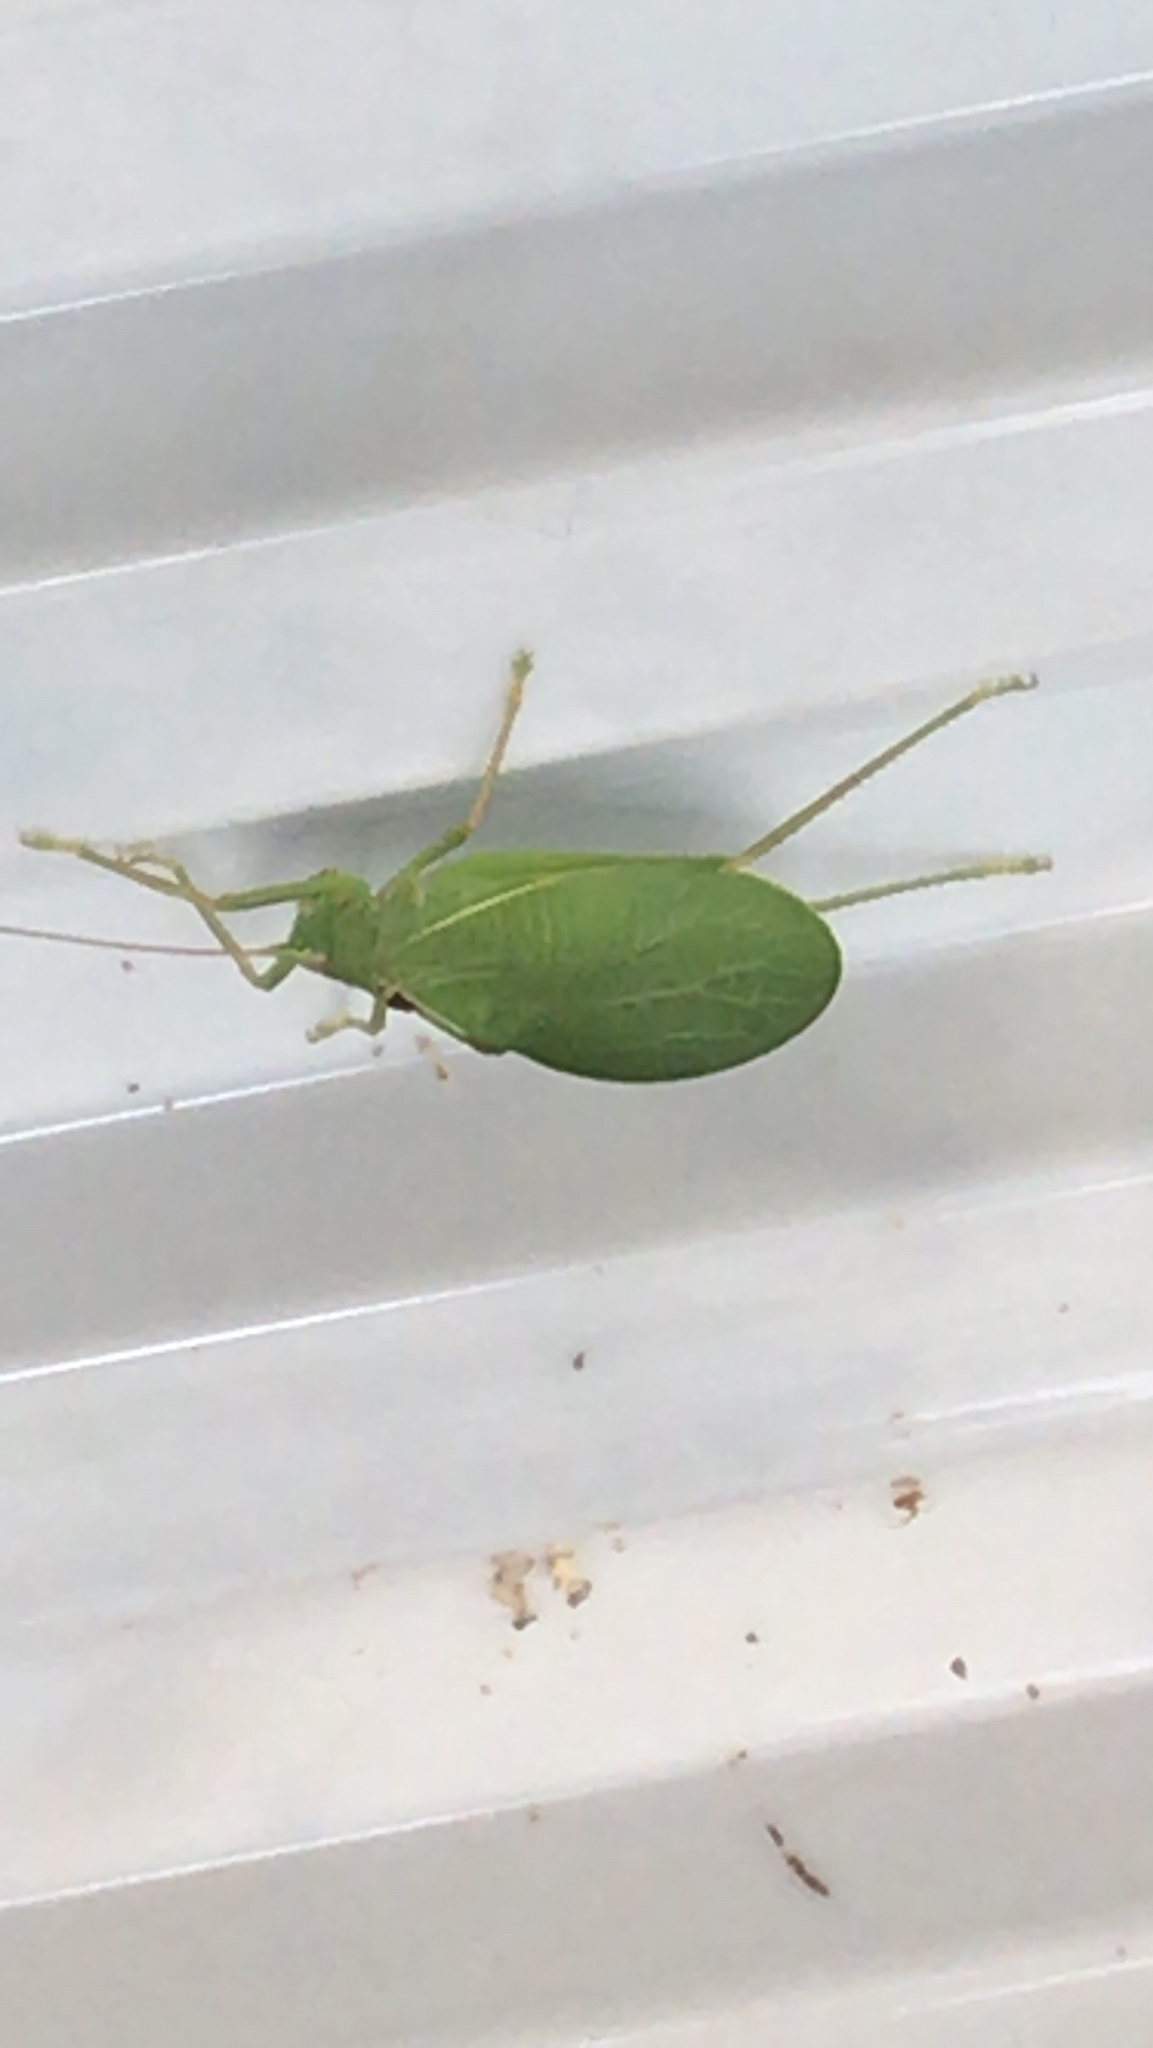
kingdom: Animalia
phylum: Arthropoda
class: Insecta
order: Orthoptera
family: Tettigoniidae
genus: Pterophylla
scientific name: Pterophylla camellifolia
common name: Common true katydid
